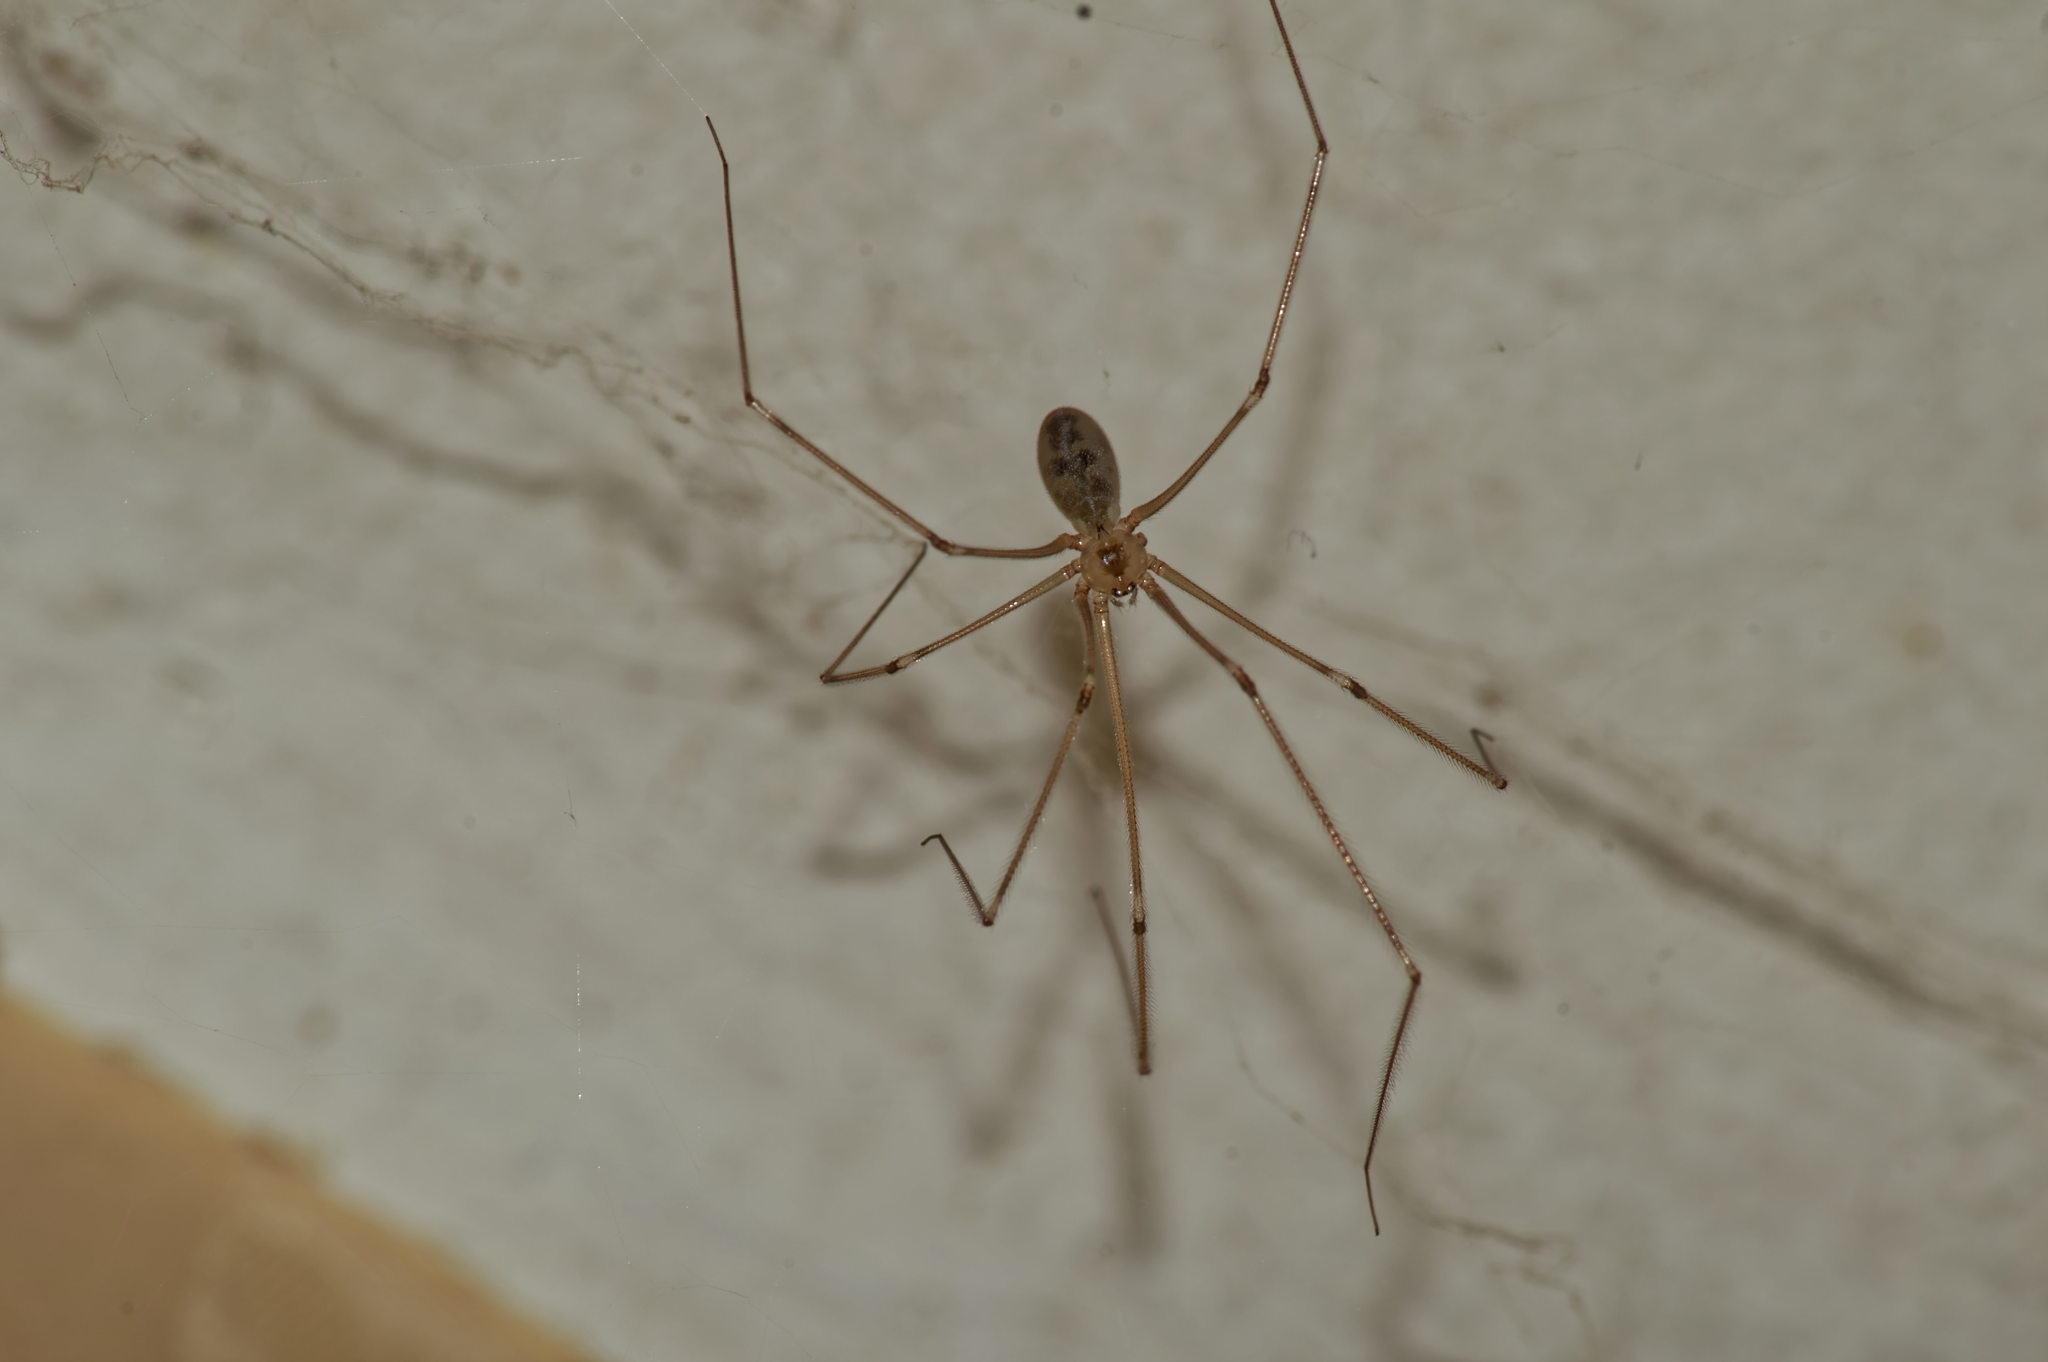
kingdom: Animalia
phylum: Arthropoda
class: Arachnida
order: Araneae
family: Pholcidae
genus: Pholcus
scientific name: Pholcus phalangioides
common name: Longbodied cellar spider
